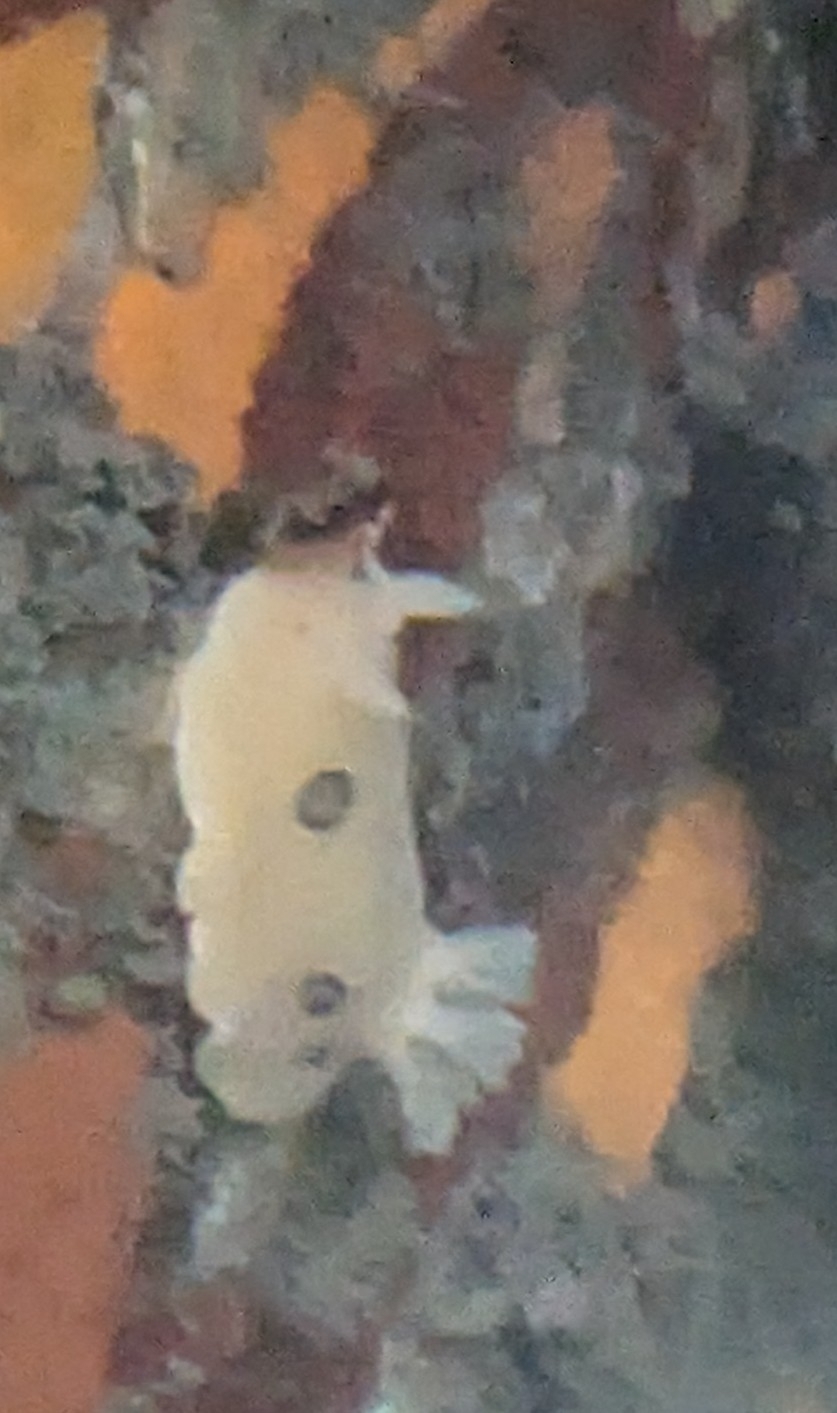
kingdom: Animalia
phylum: Mollusca
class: Gastropoda
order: Nudibranchia
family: Discodorididae
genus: Diaulula
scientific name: Diaulula sandiegensis
